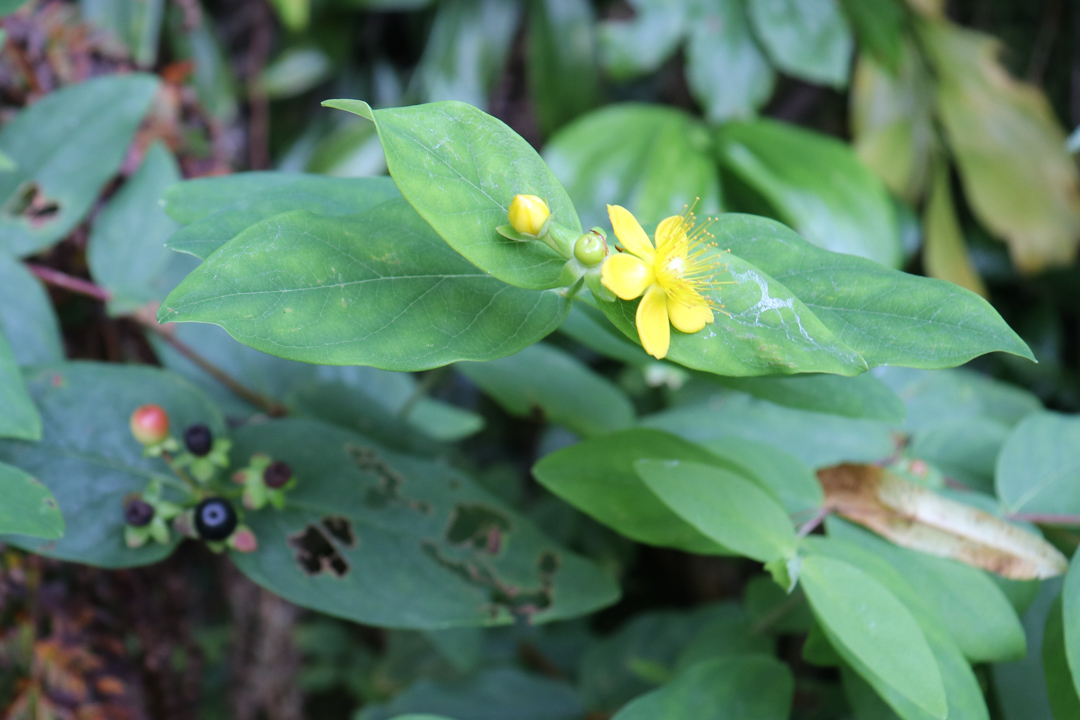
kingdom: Plantae
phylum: Tracheophyta
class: Magnoliopsida
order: Malpighiales
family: Hypericaceae
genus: Hypericum
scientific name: Hypericum androsaemum
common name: Sweet-amber
